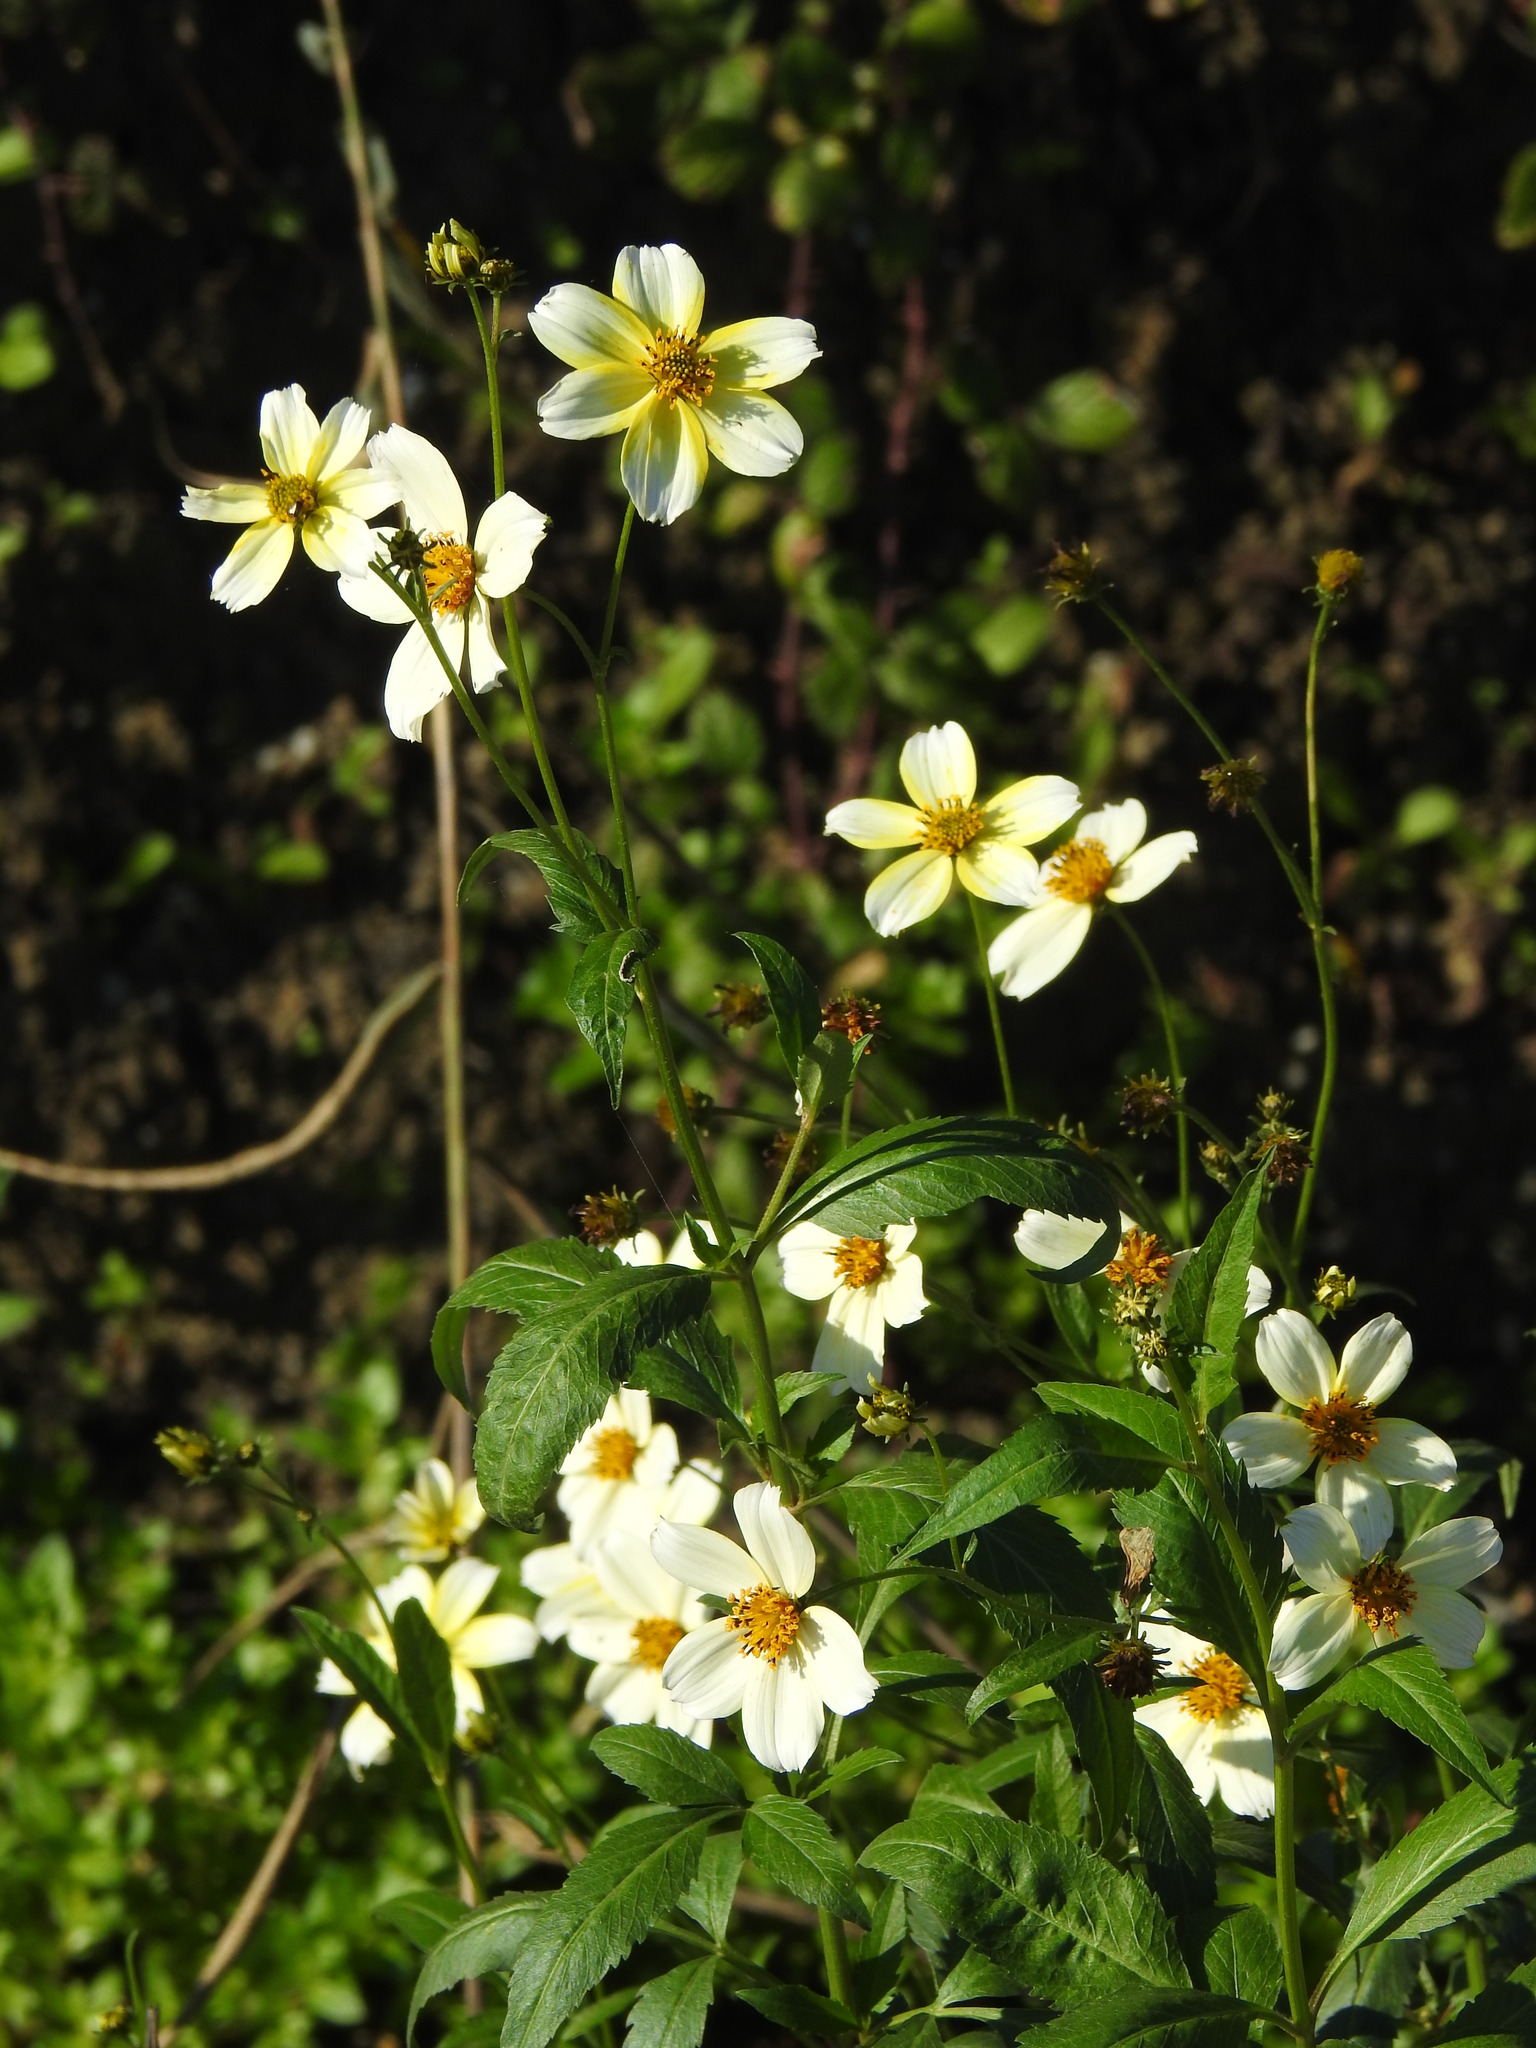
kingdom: Plantae
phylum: Tracheophyta
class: Magnoliopsida
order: Asterales
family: Asteraceae
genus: Bidens
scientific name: Bidens aurea
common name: Arizona beggar-ticks
